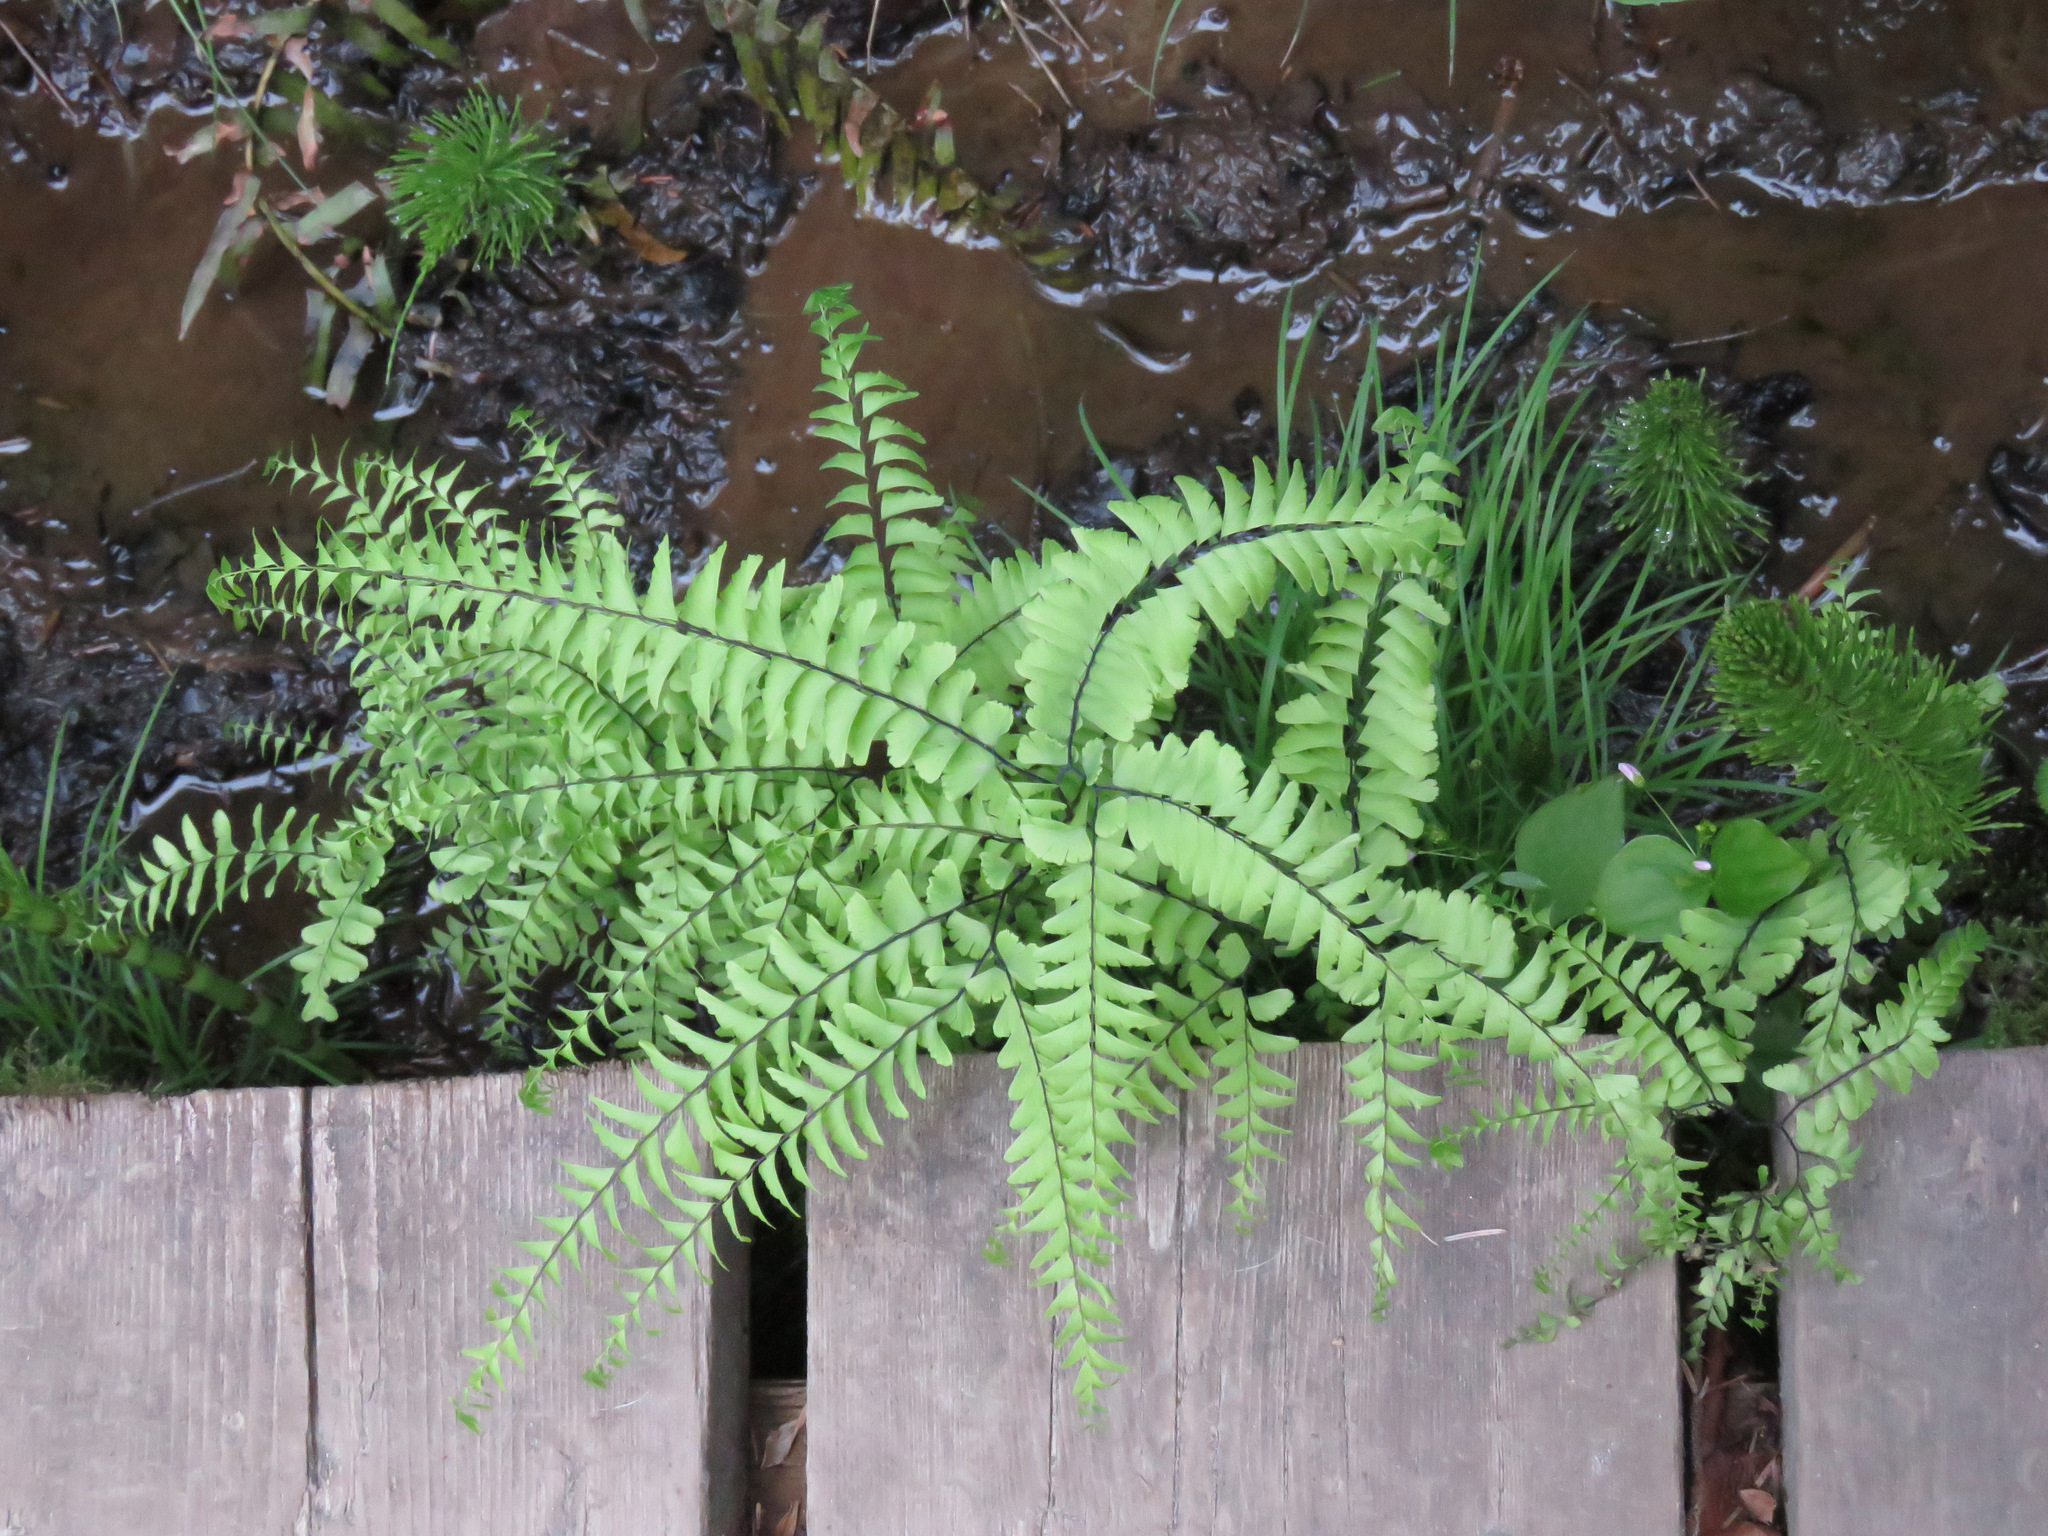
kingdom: Plantae
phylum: Tracheophyta
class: Polypodiopsida
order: Polypodiales
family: Pteridaceae
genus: Adiantum
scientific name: Adiantum aleuticum
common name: Aleutian maidenhair fern
